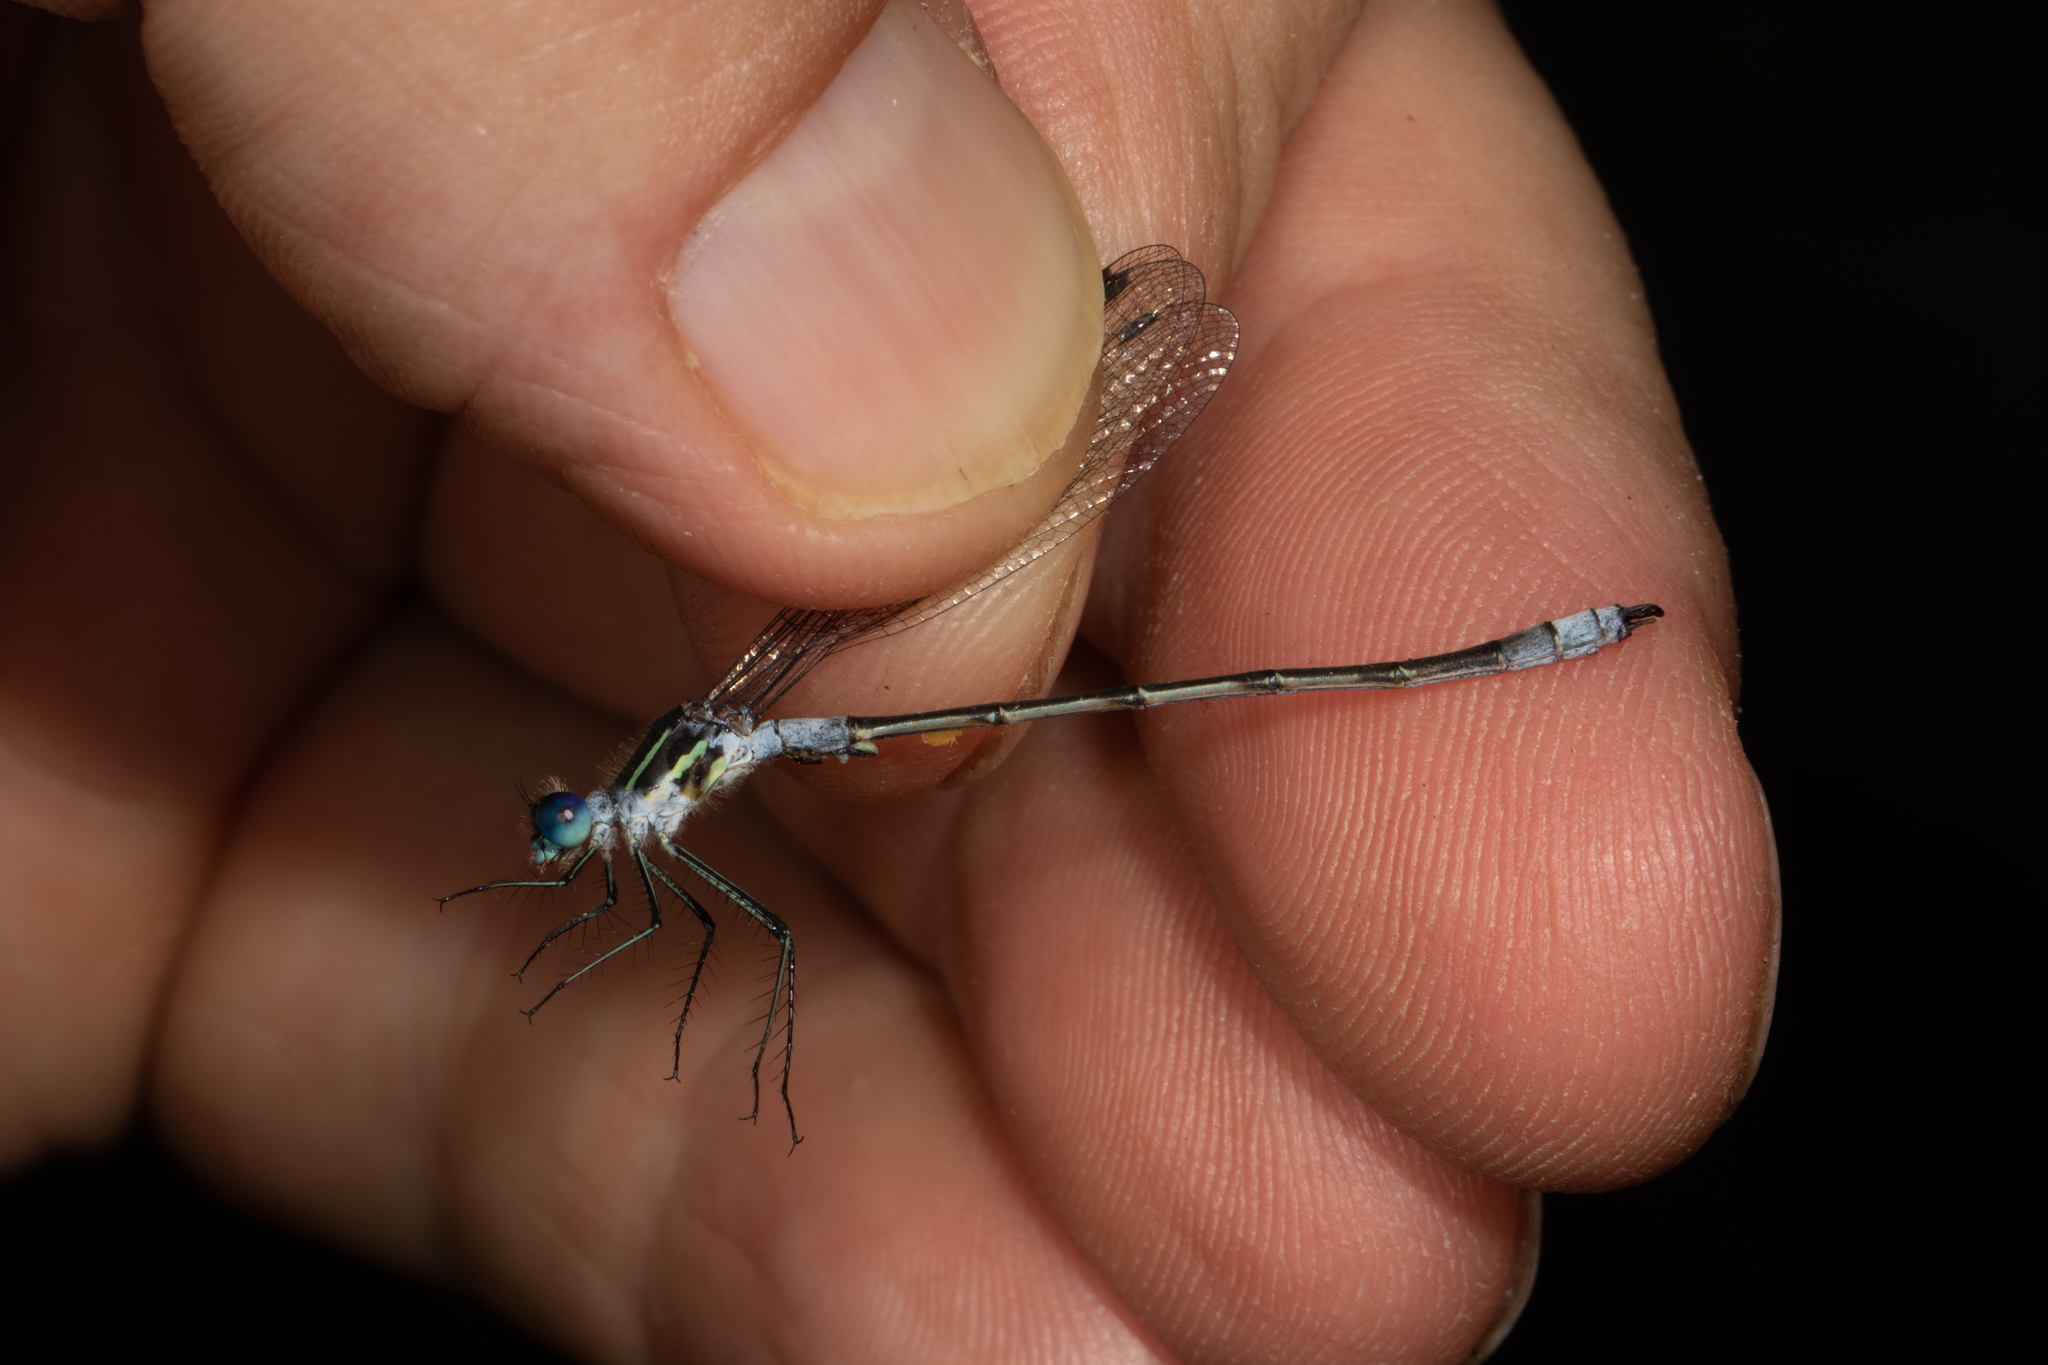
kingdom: Animalia
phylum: Arthropoda
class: Insecta
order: Odonata
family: Lestidae
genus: Lestes
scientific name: Lestes disjunctus
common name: Northern spreadwing
